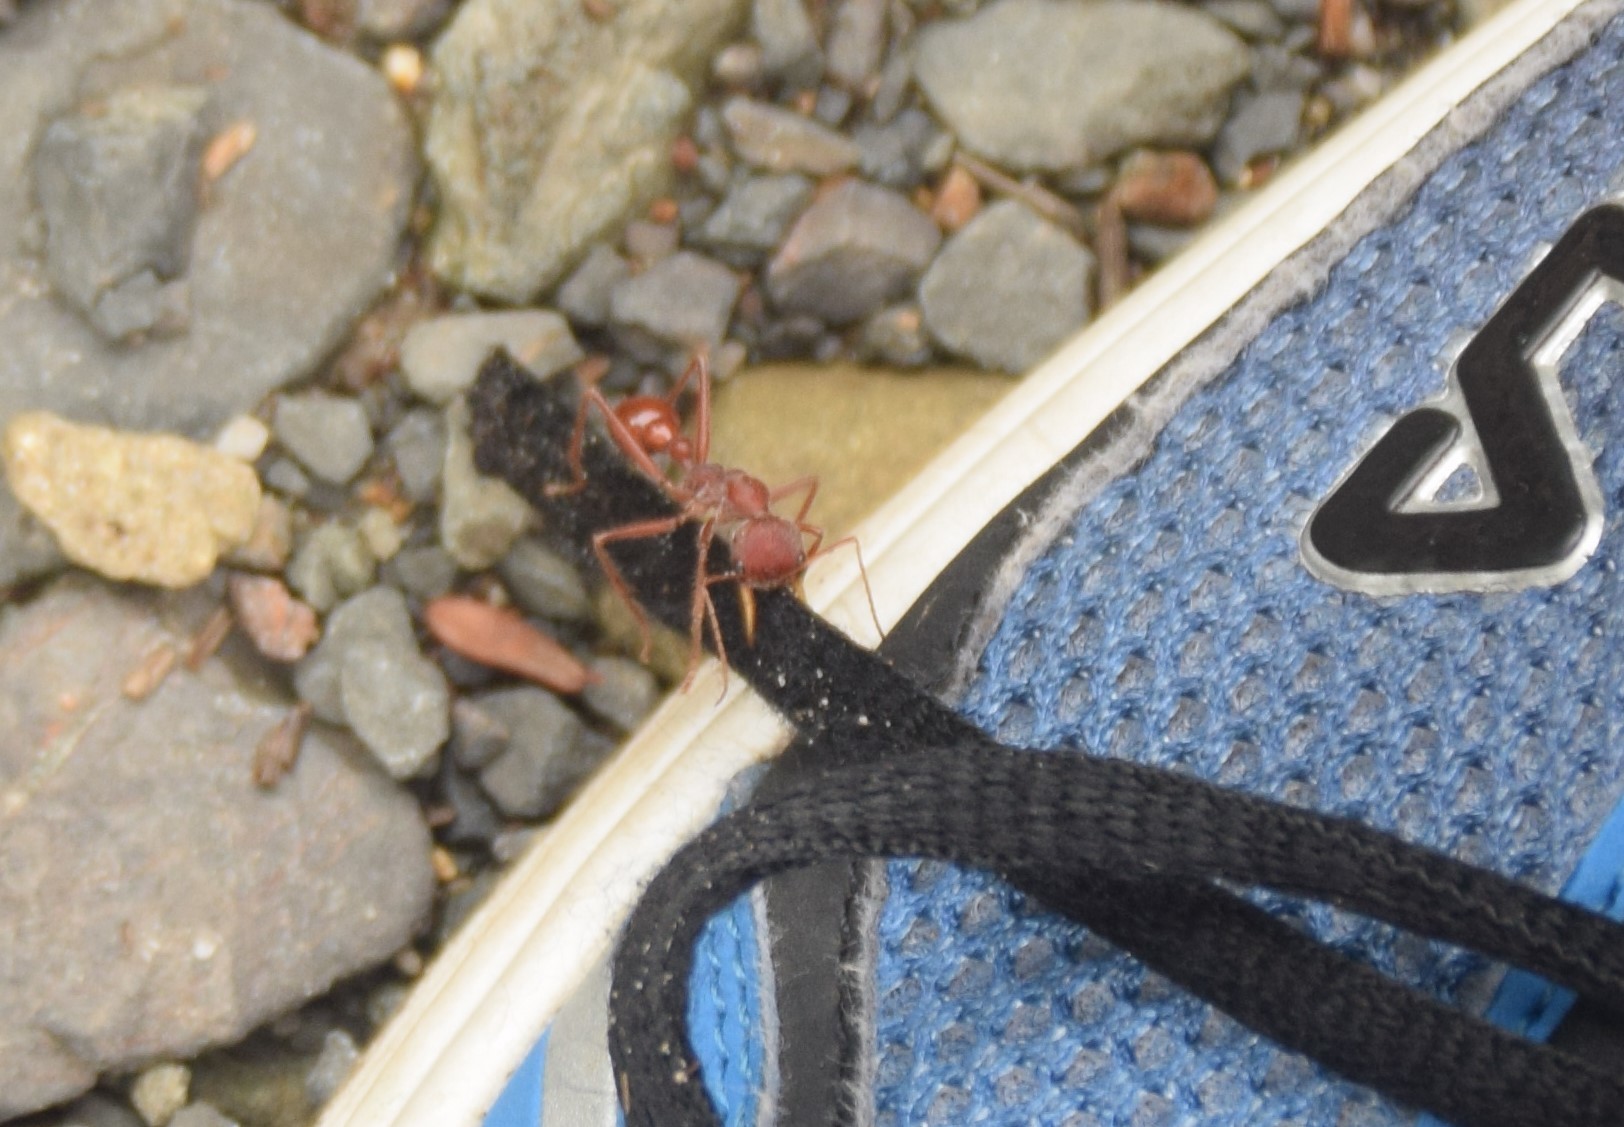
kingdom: Animalia
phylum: Arthropoda
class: Insecta
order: Hymenoptera
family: Formicidae
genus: Myrmecia
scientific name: Myrmecia gulosa
